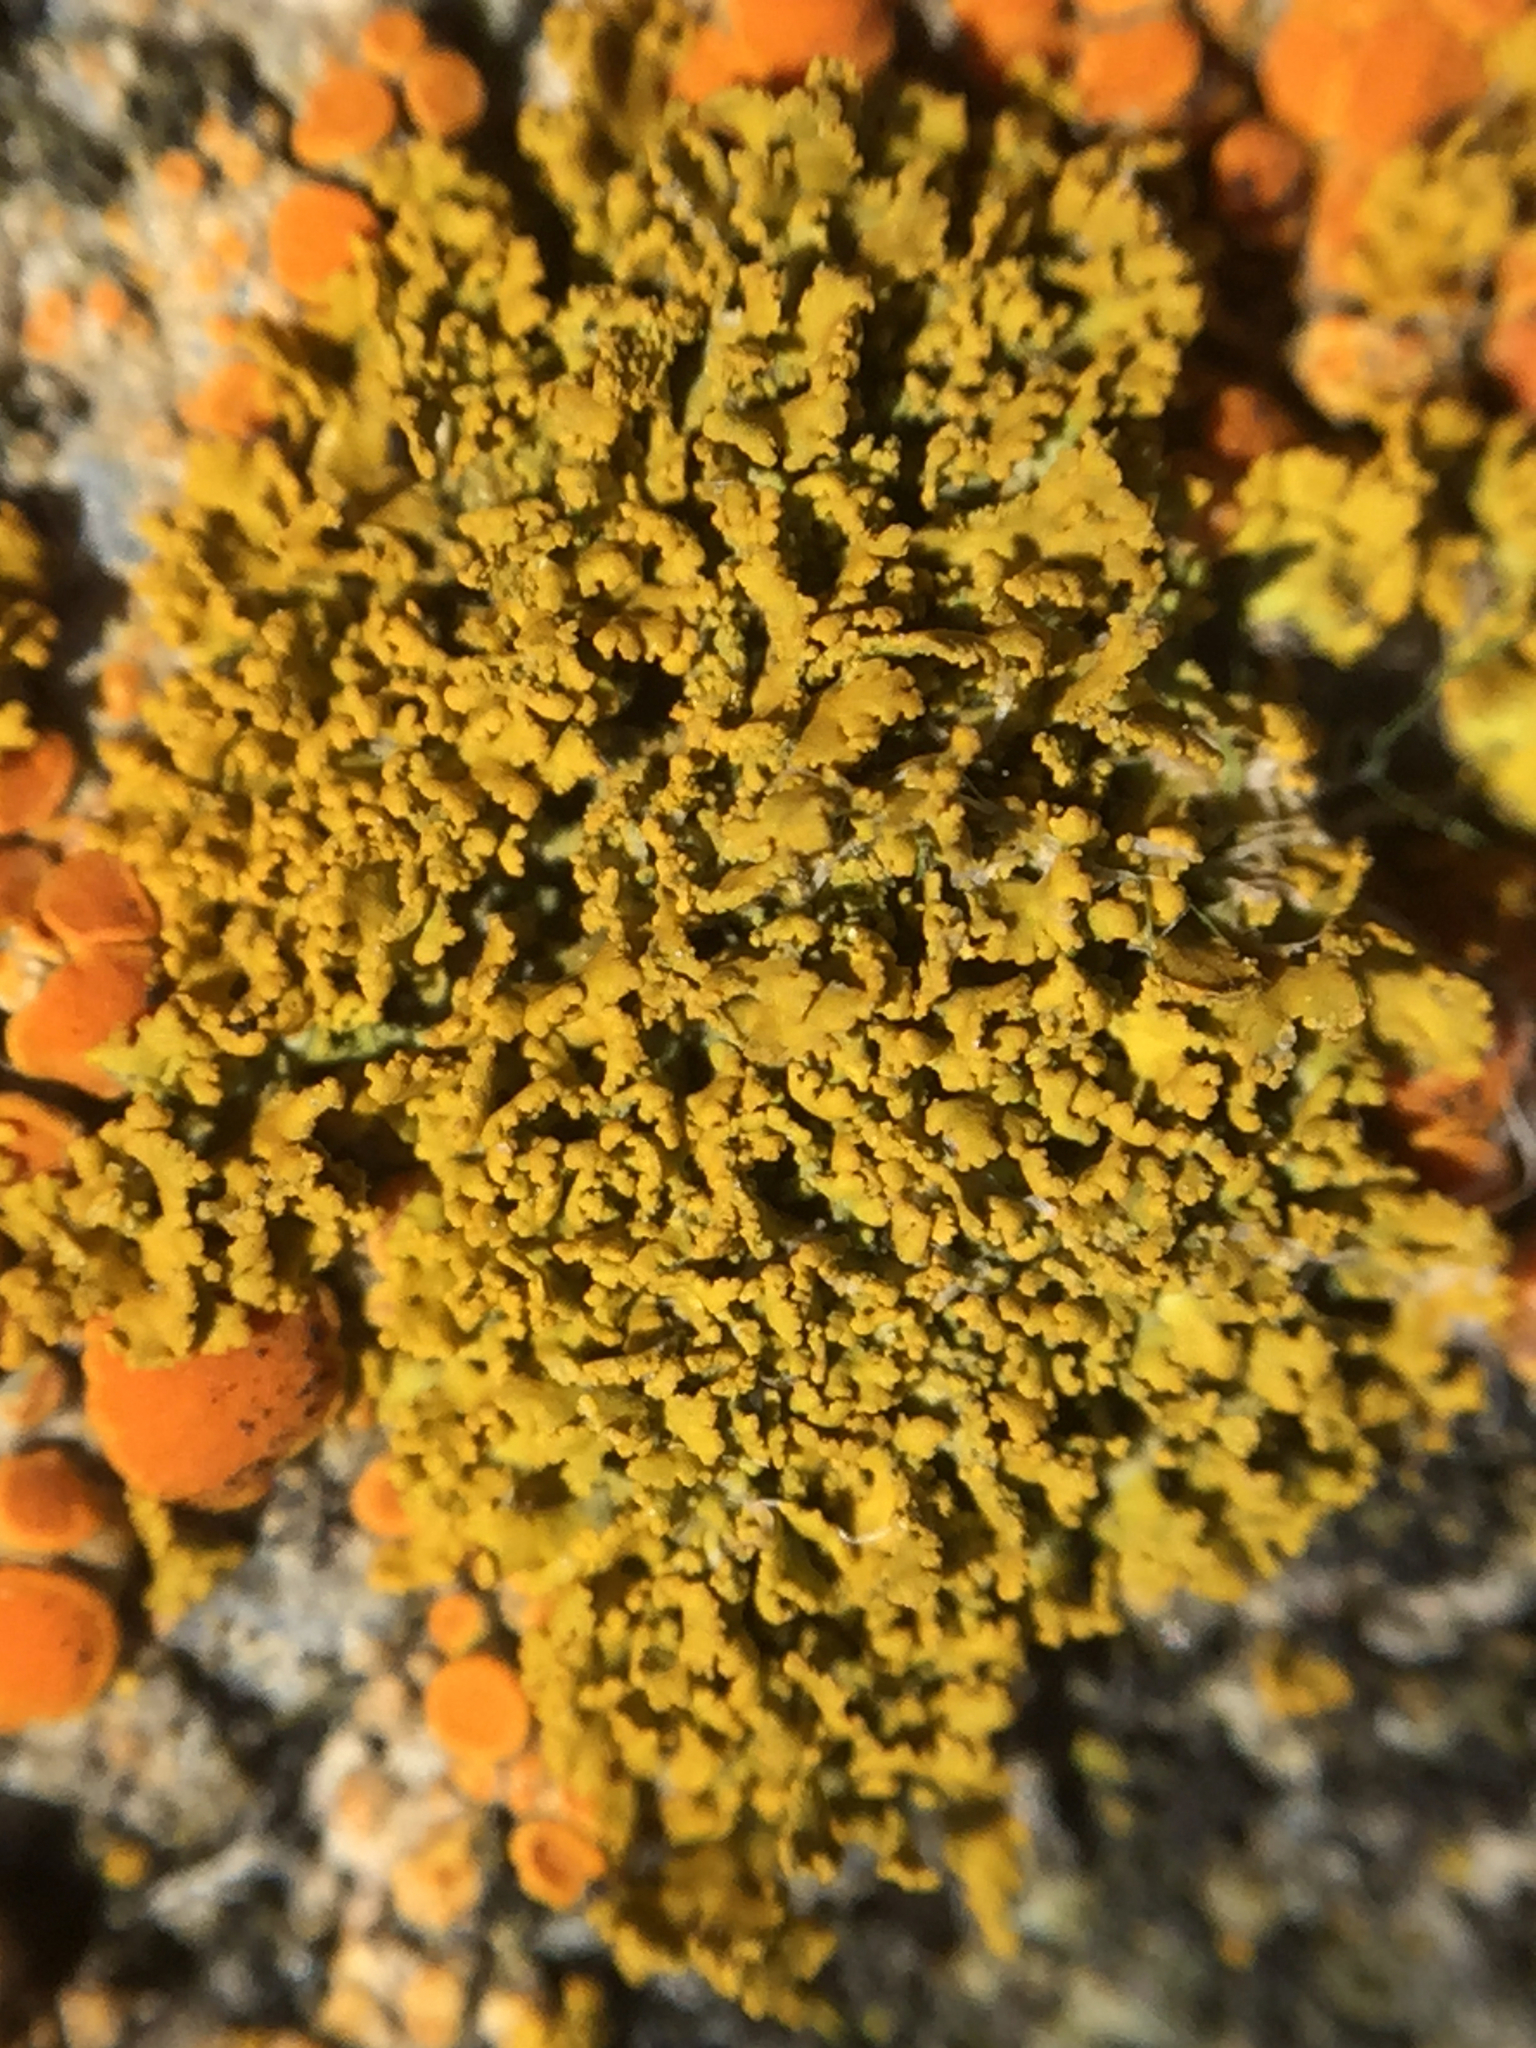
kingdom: Fungi
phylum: Ascomycota
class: Lecanoromycetes
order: Teloschistales
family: Teloschistaceae
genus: Polycauliona
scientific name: Polycauliona candelaria
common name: Shrubby sunburst lichen
